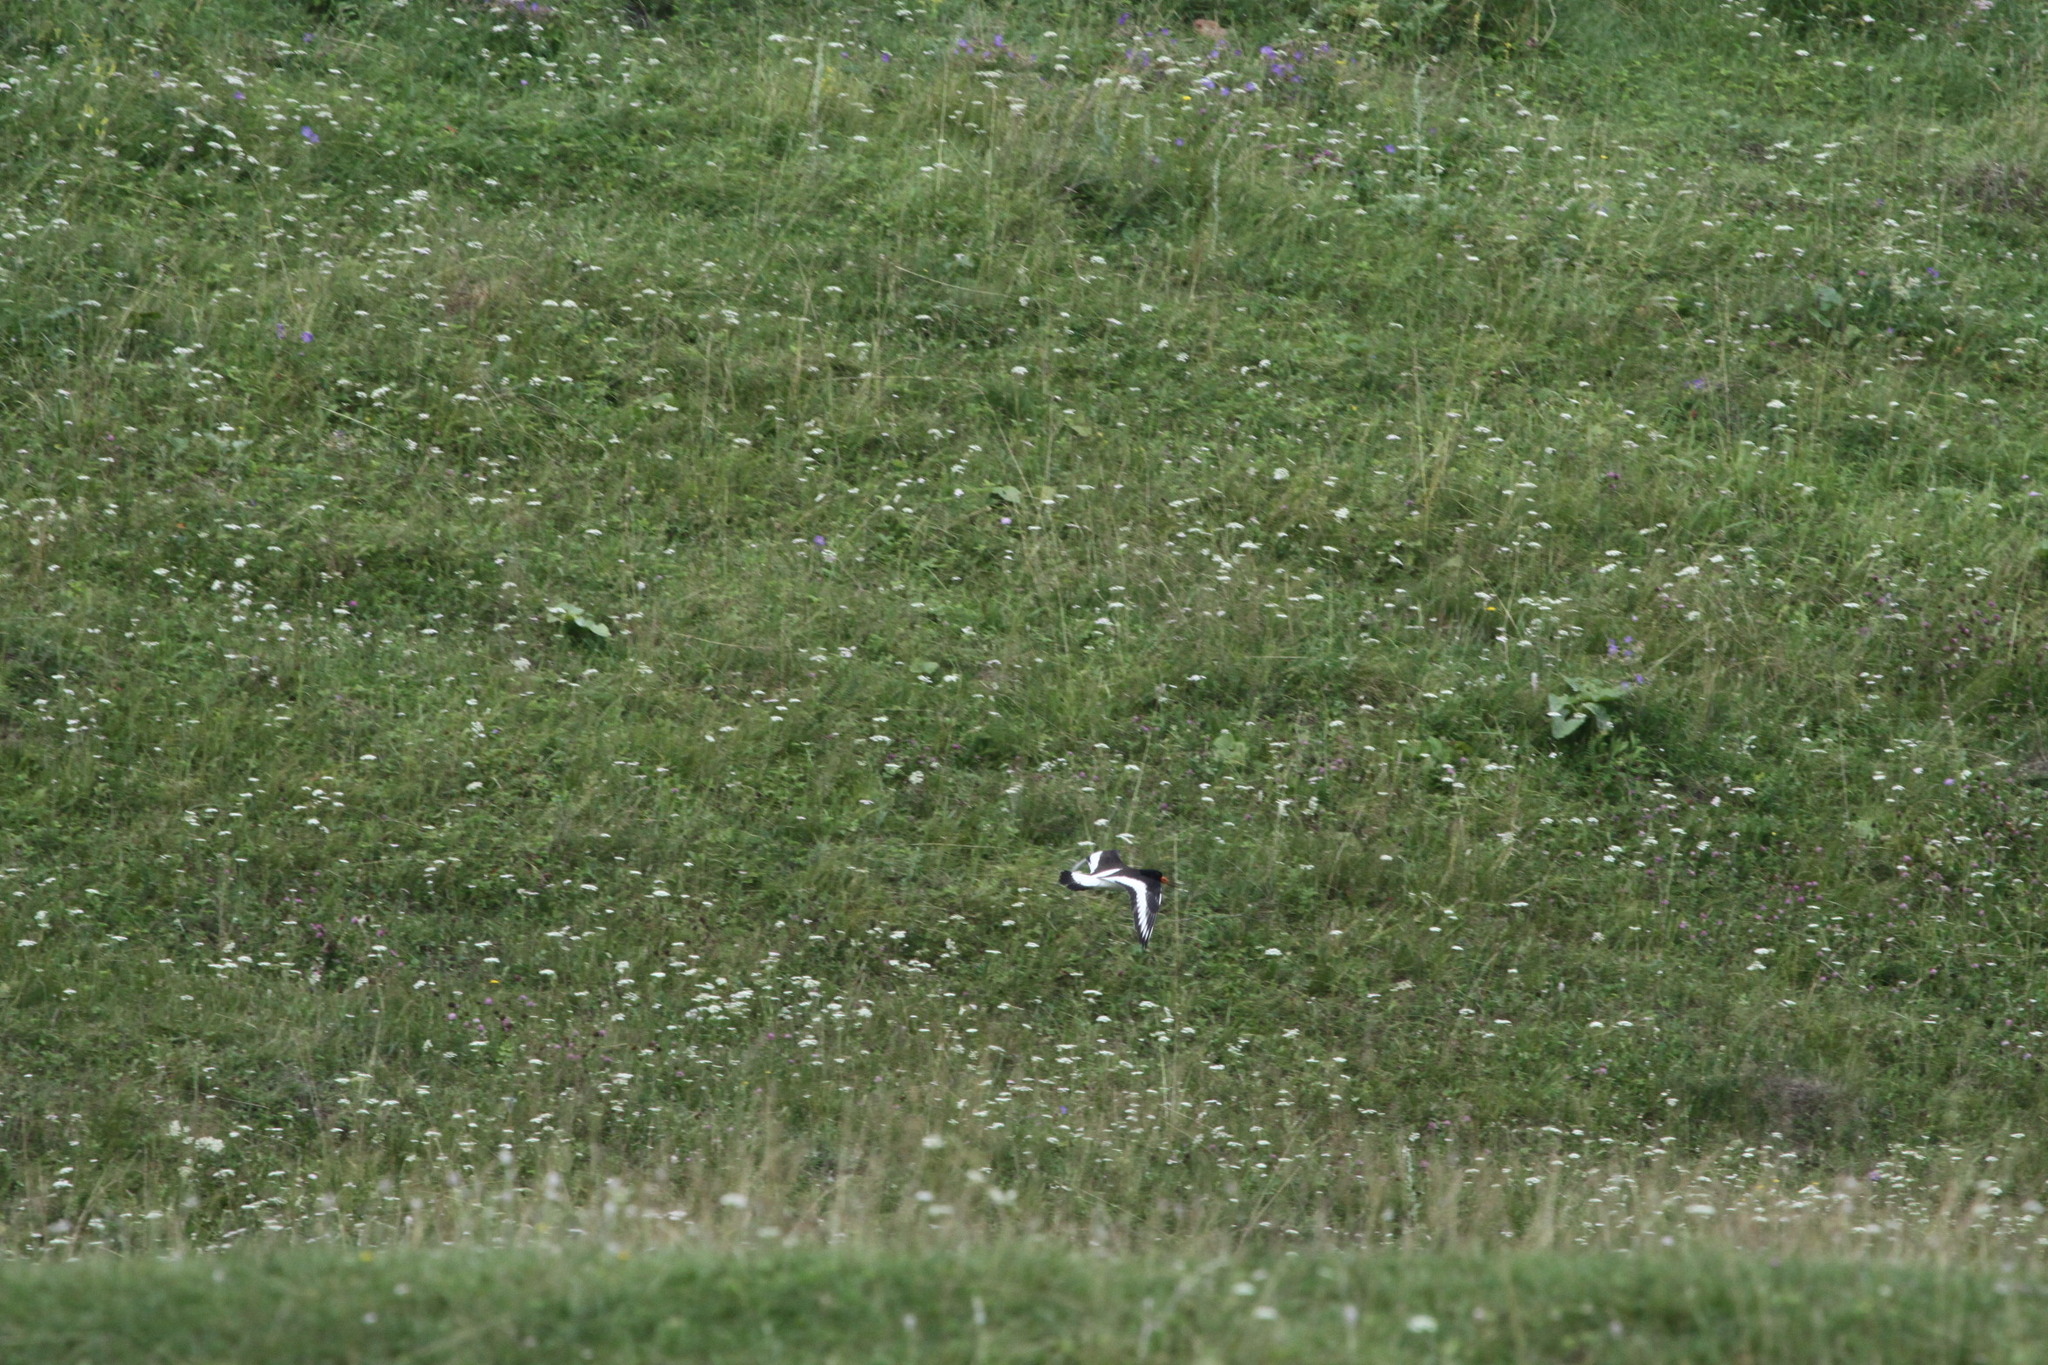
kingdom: Animalia
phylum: Chordata
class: Aves
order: Charadriiformes
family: Haematopodidae
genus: Haematopus
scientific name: Haematopus ostralegus
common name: Eurasian oystercatcher
